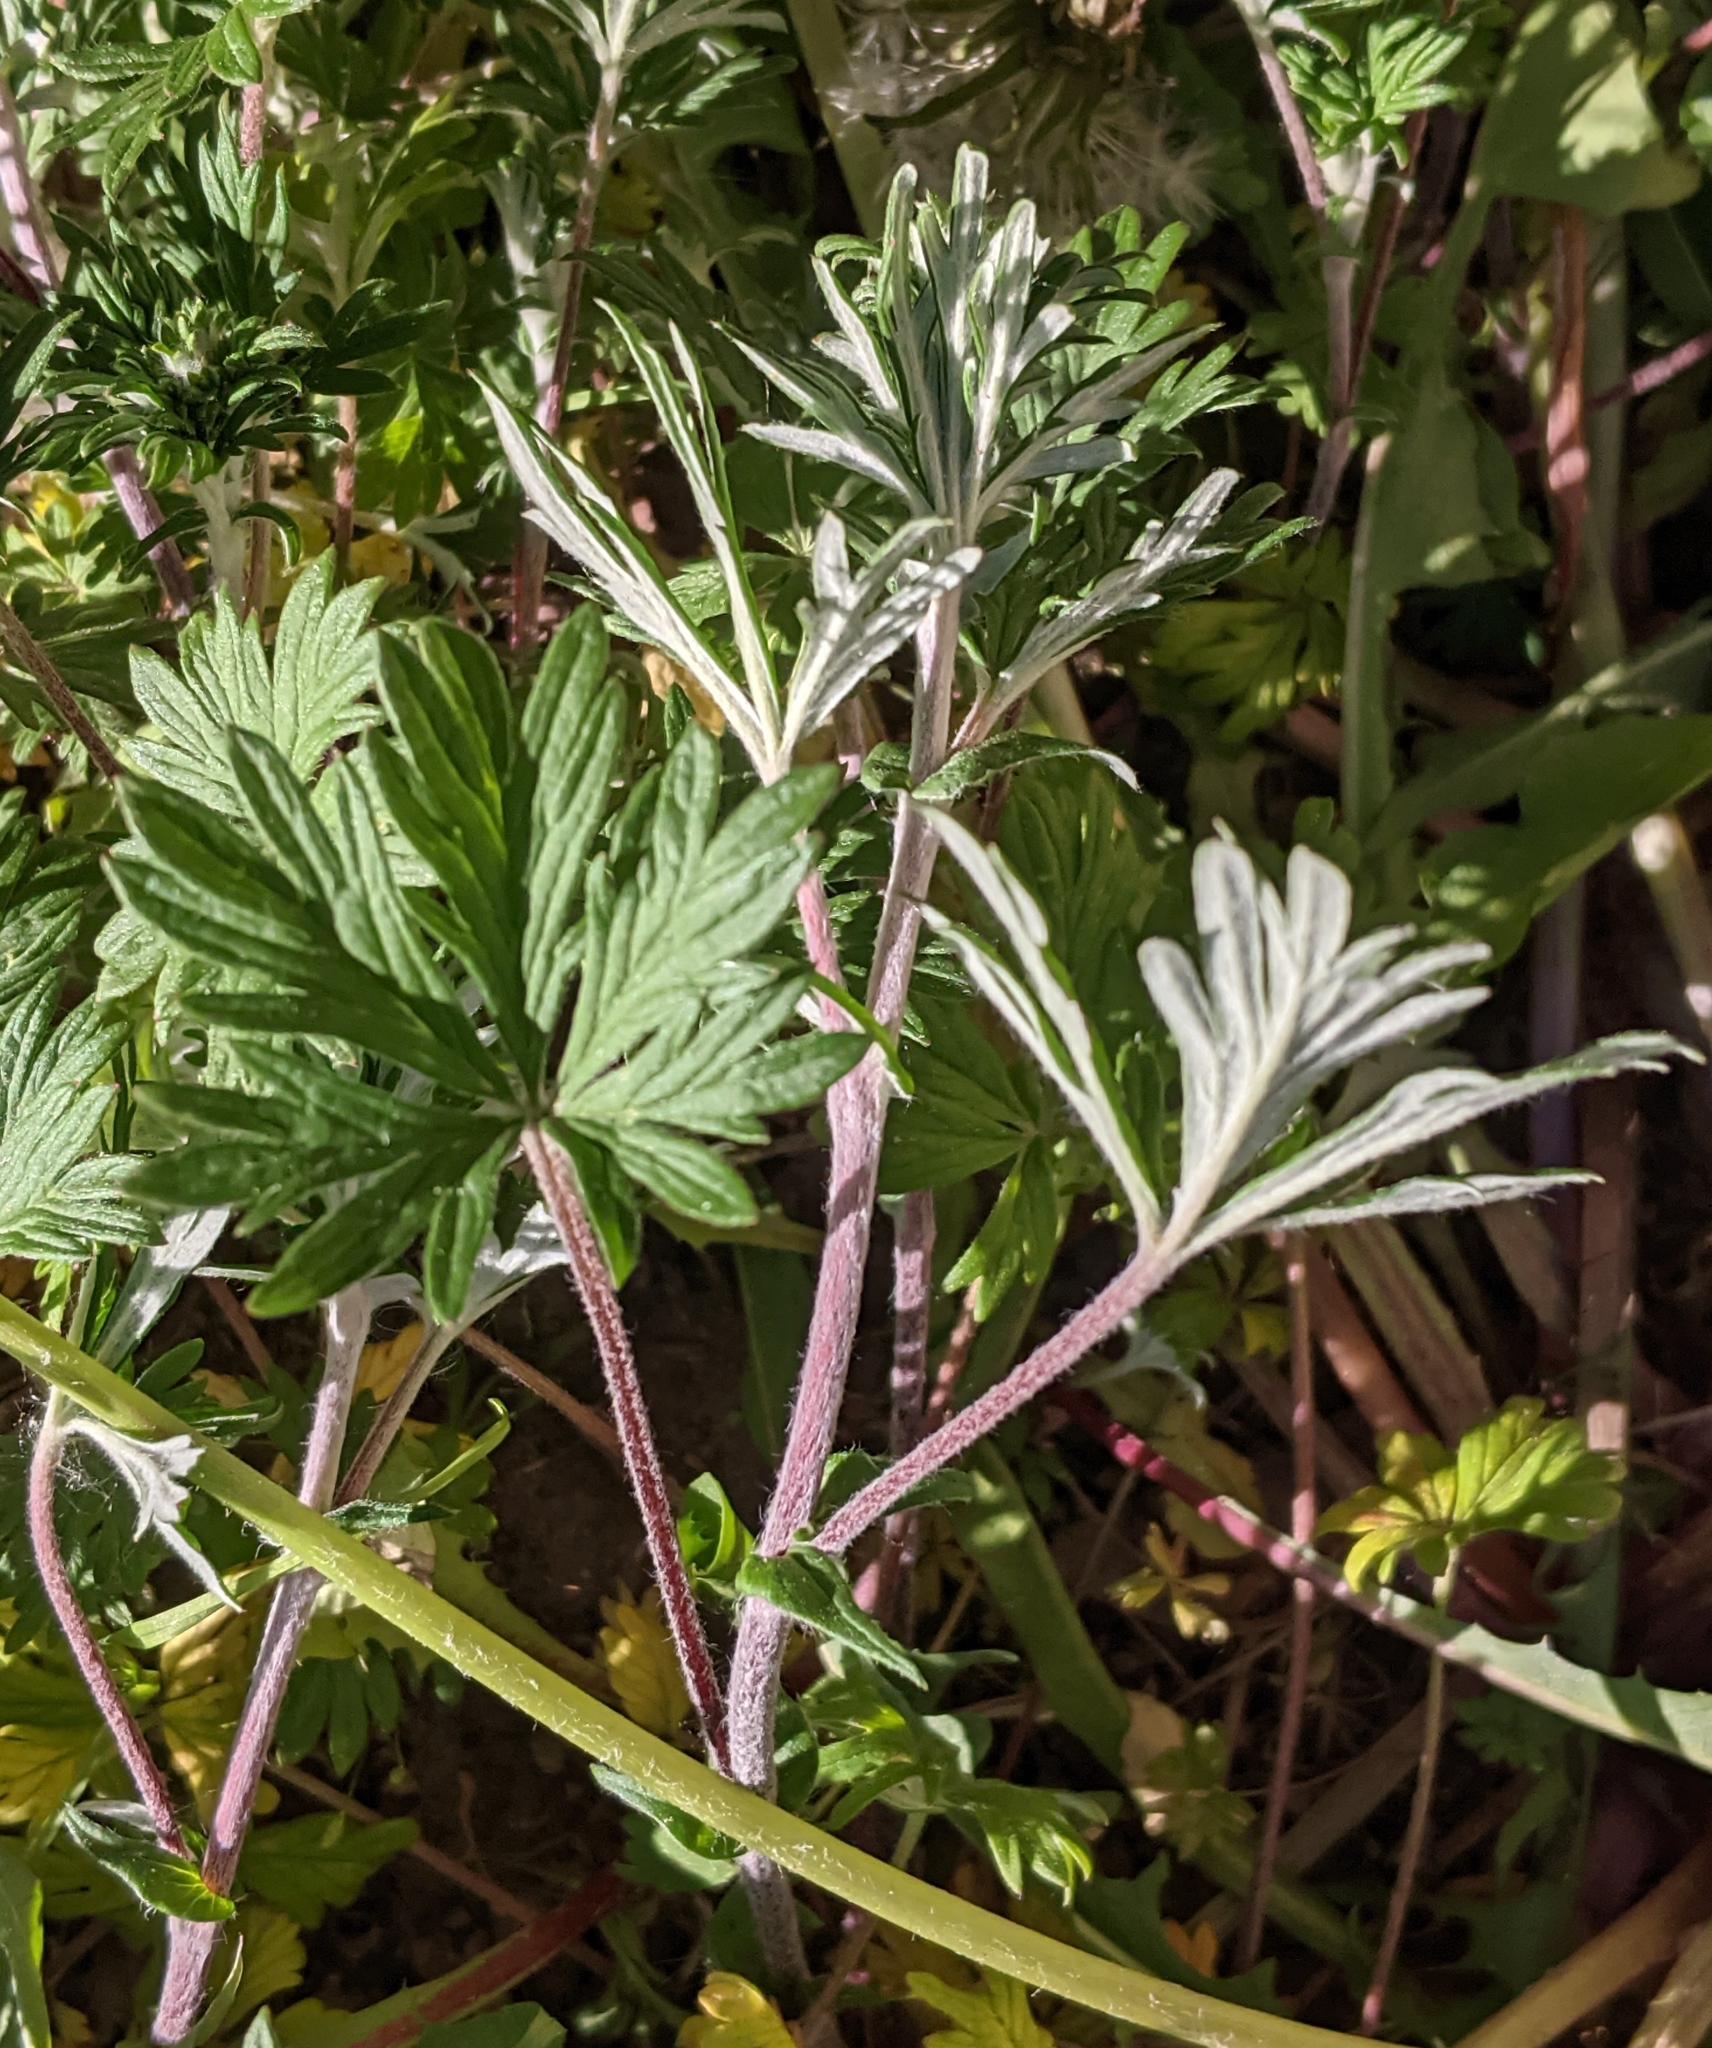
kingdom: Plantae
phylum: Tracheophyta
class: Magnoliopsida
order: Rosales
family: Rosaceae
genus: Potentilla
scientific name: Potentilla argentea
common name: Hoary cinquefoil
